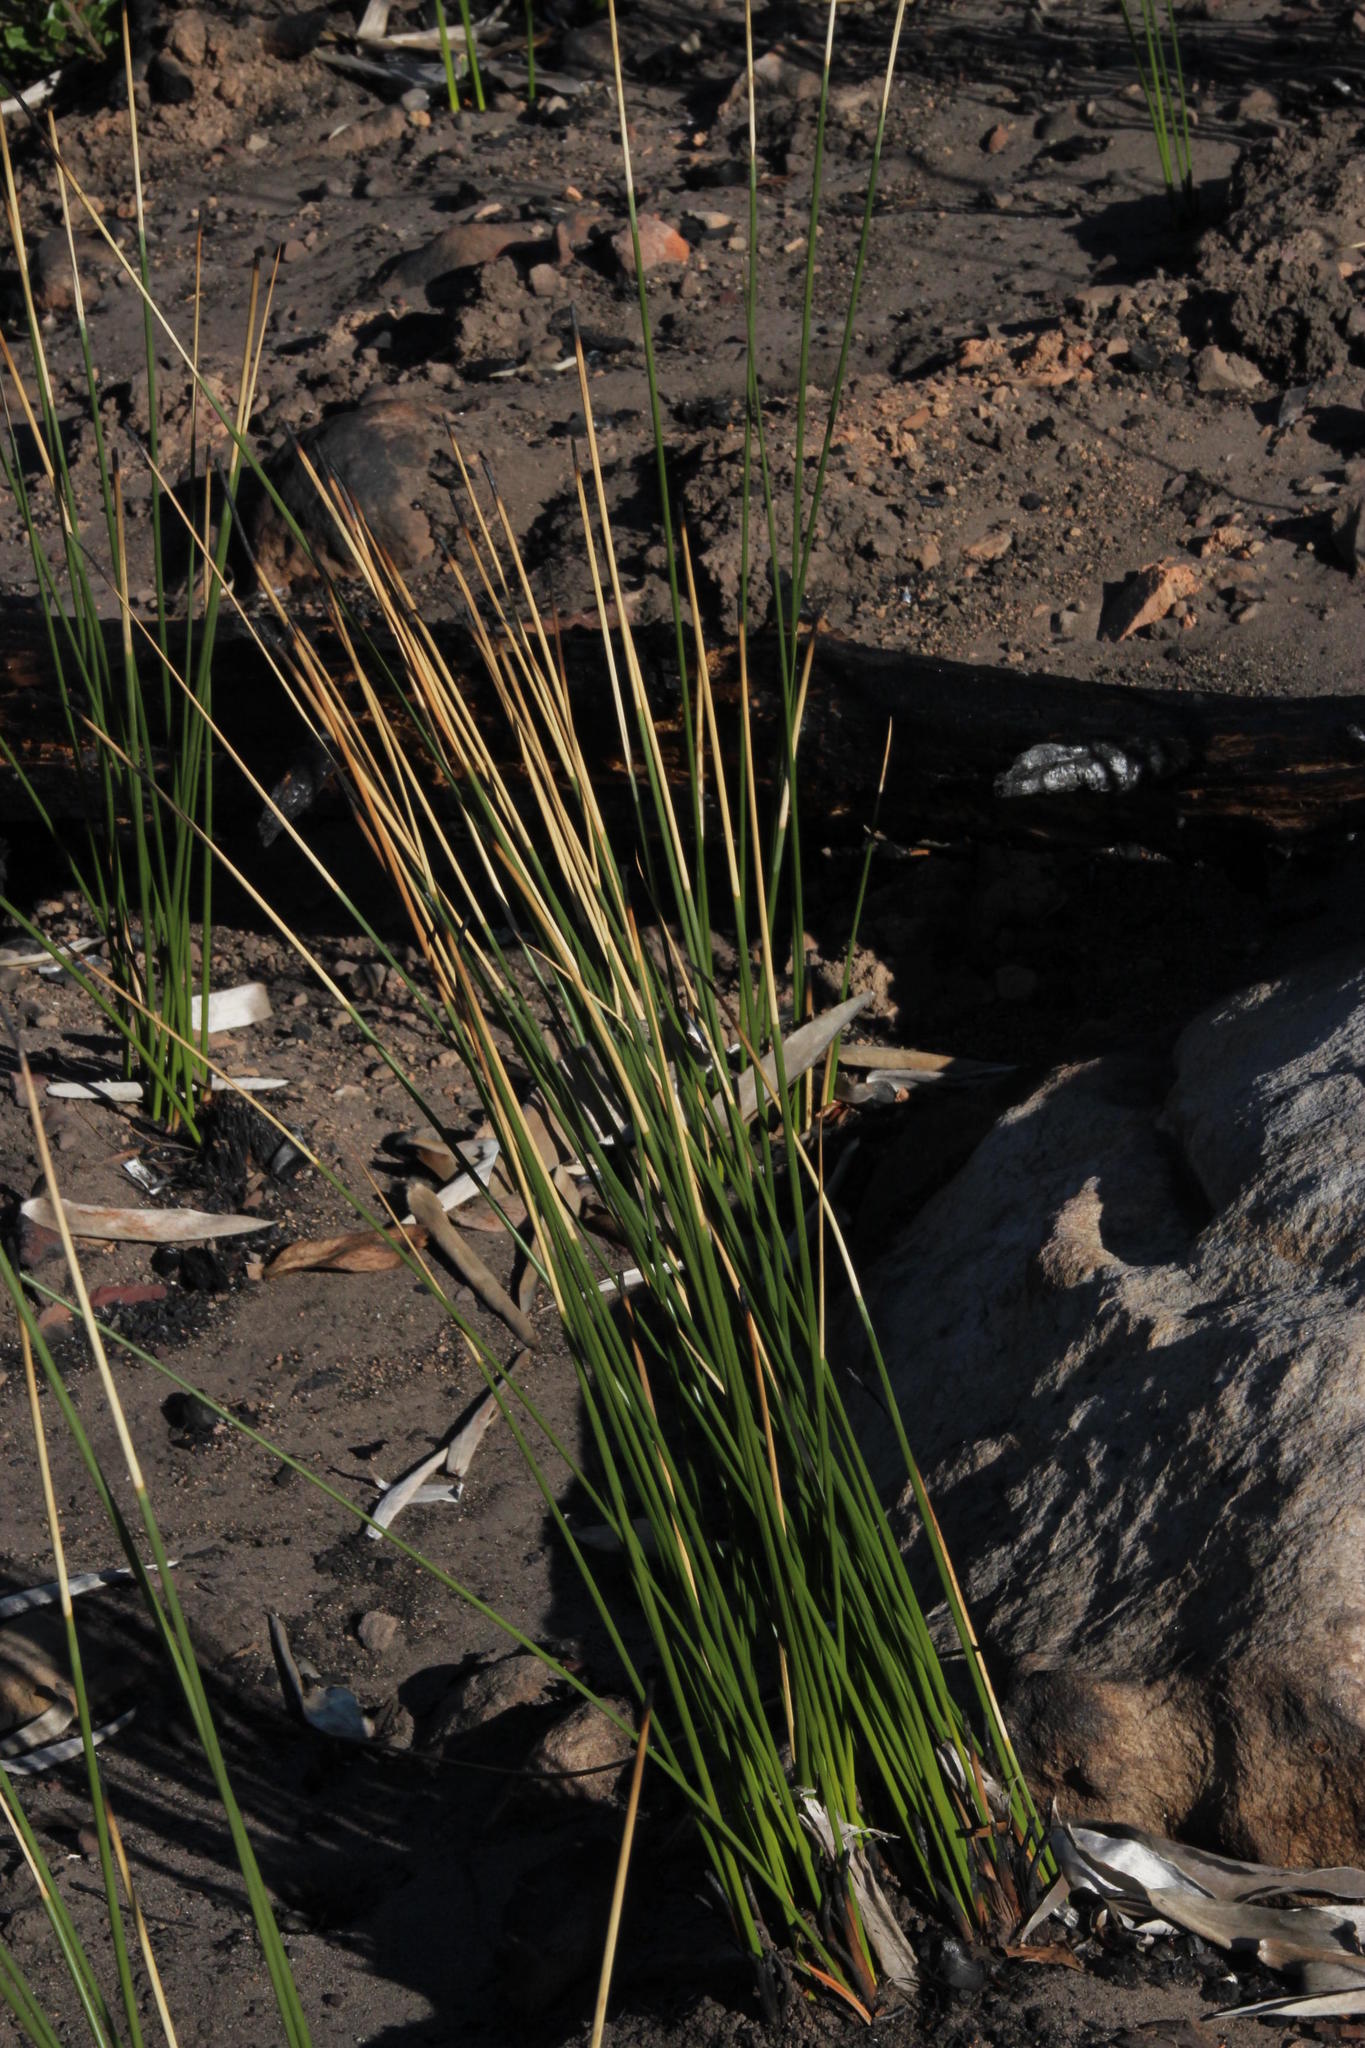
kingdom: Plantae
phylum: Tracheophyta
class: Liliopsida
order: Asparagales
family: Iridaceae
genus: Bobartia
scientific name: Bobartia indica
